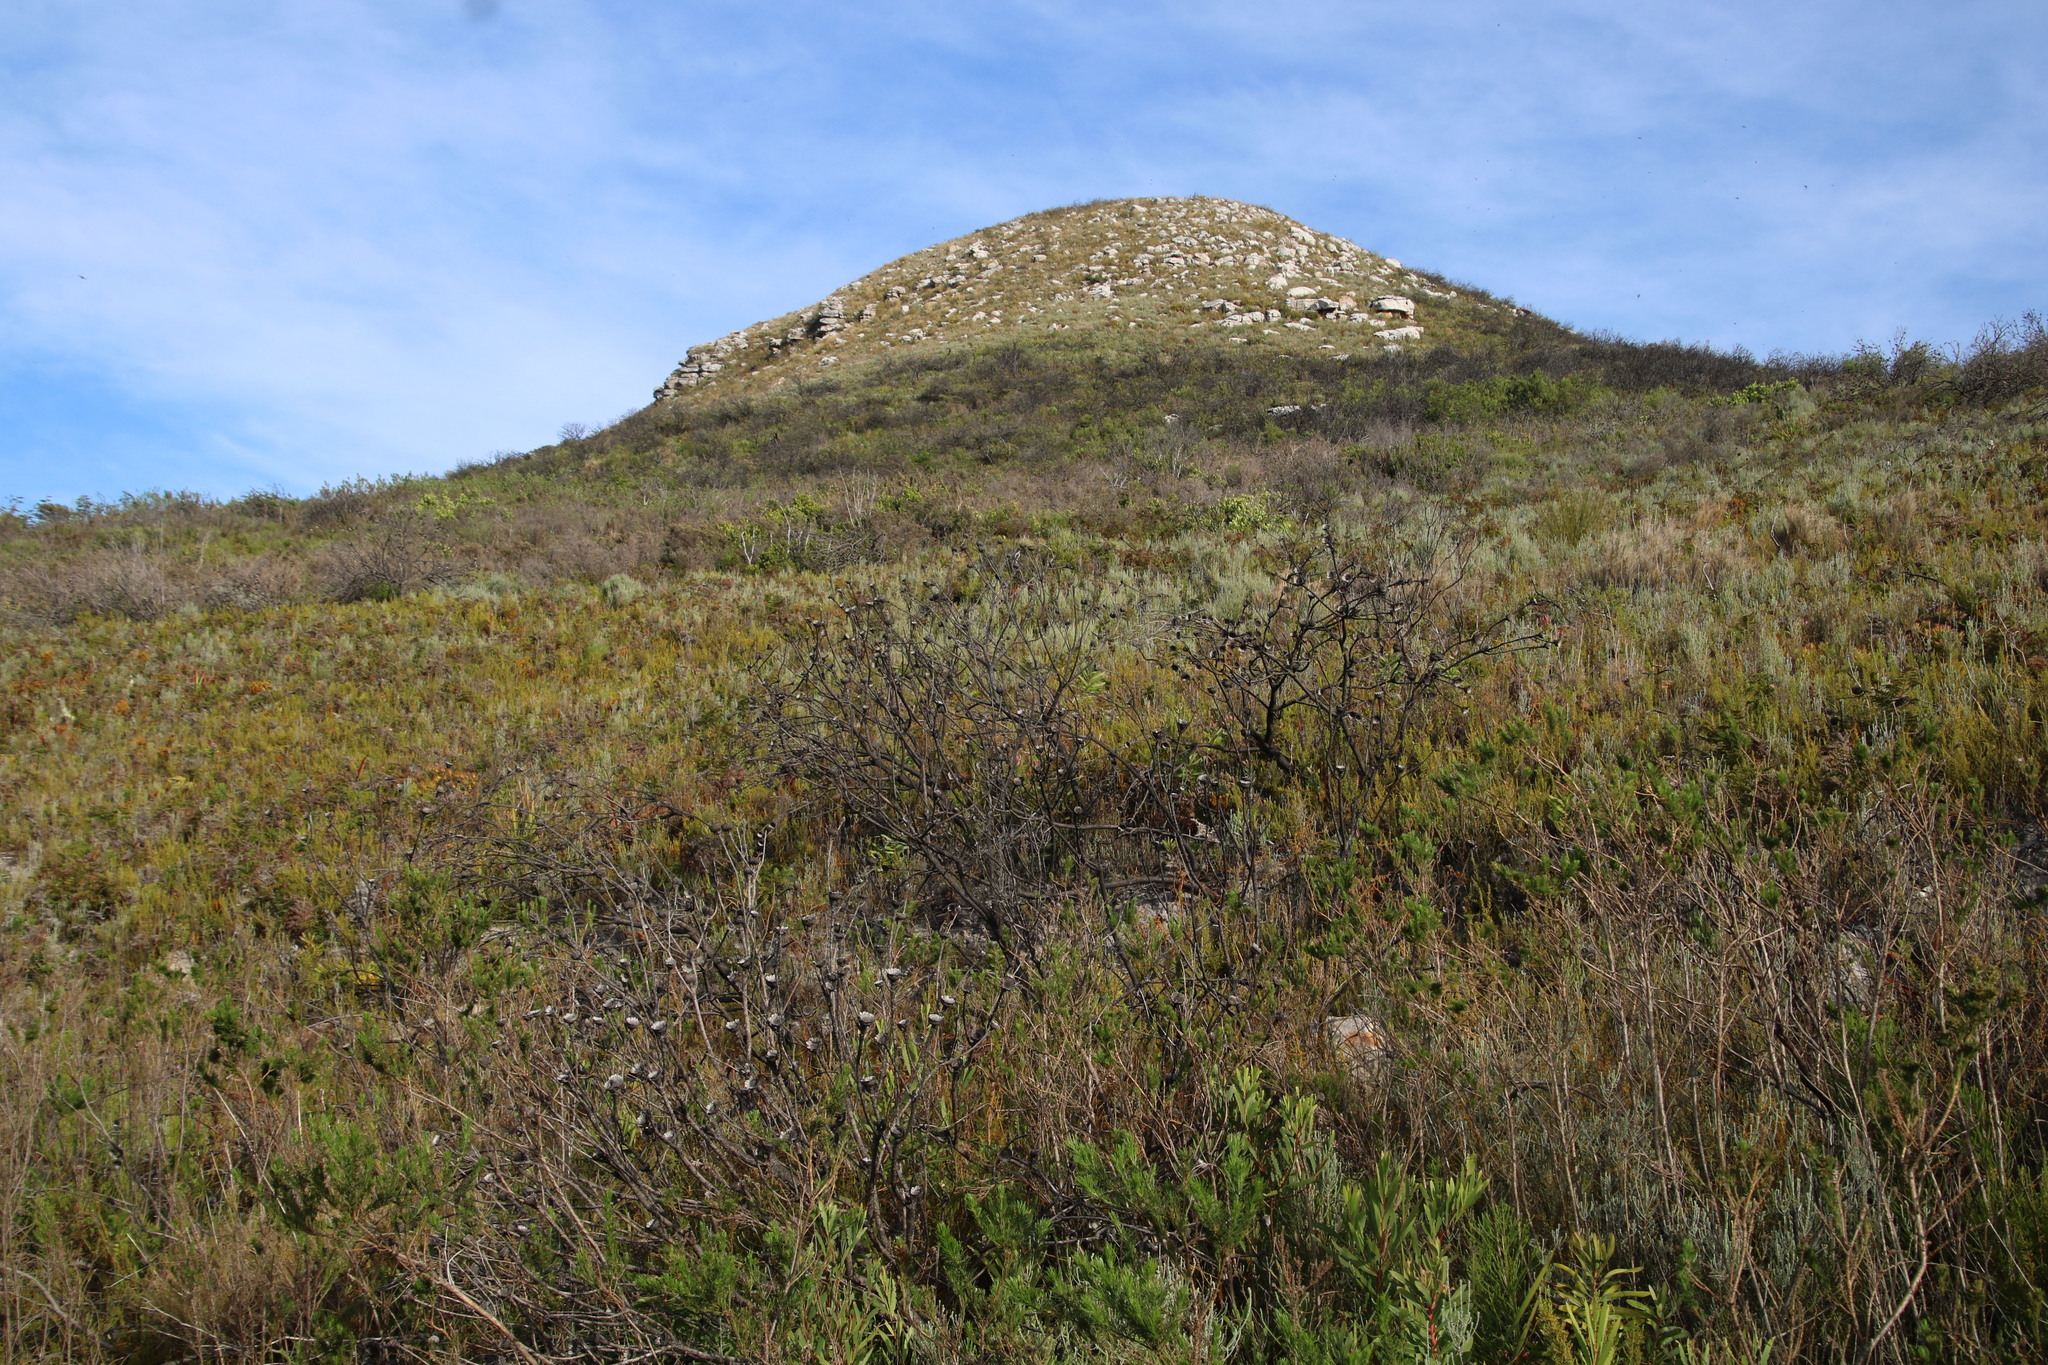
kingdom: Plantae
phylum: Tracheophyta
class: Magnoliopsida
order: Proteales
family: Proteaceae
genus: Protea
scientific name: Protea lepidocarpodendron
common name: Black-bearded protea
